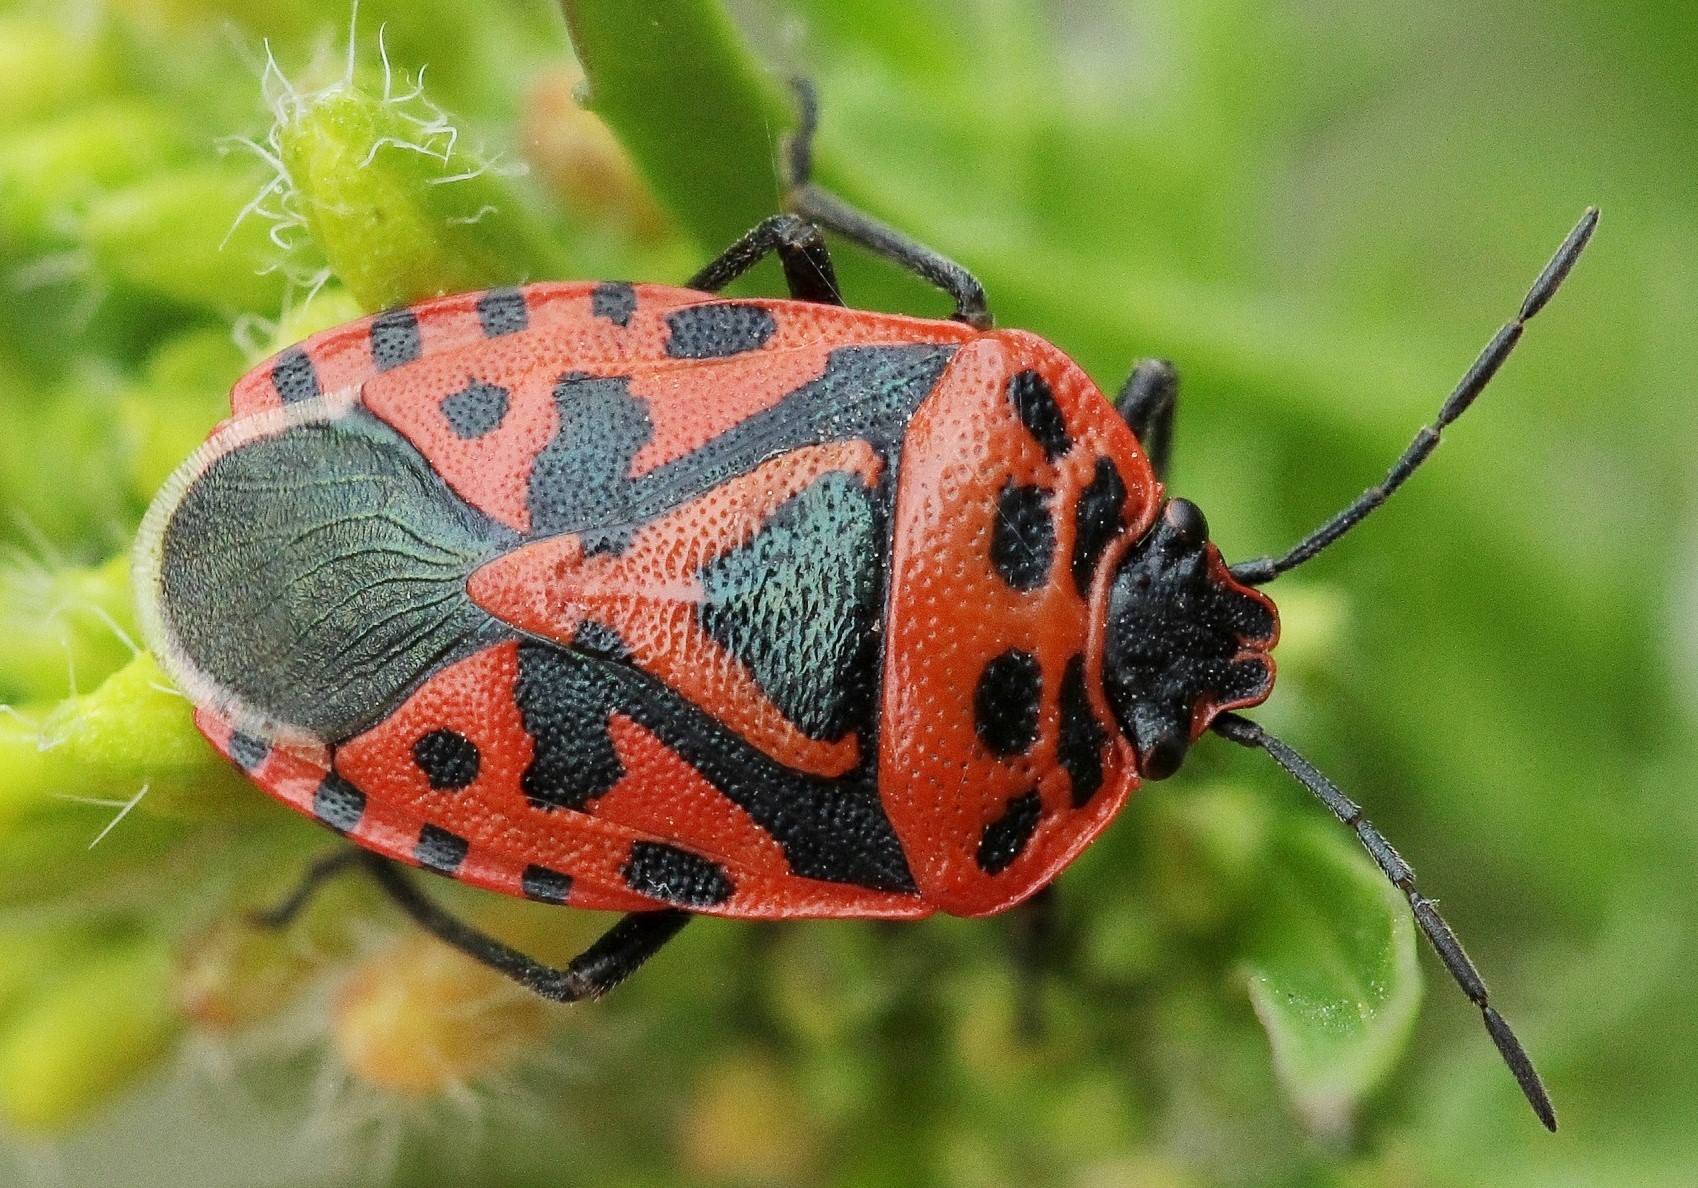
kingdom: Animalia
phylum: Arthropoda
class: Insecta
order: Hemiptera
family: Pentatomidae
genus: Eurydema
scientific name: Eurydema ventralis
